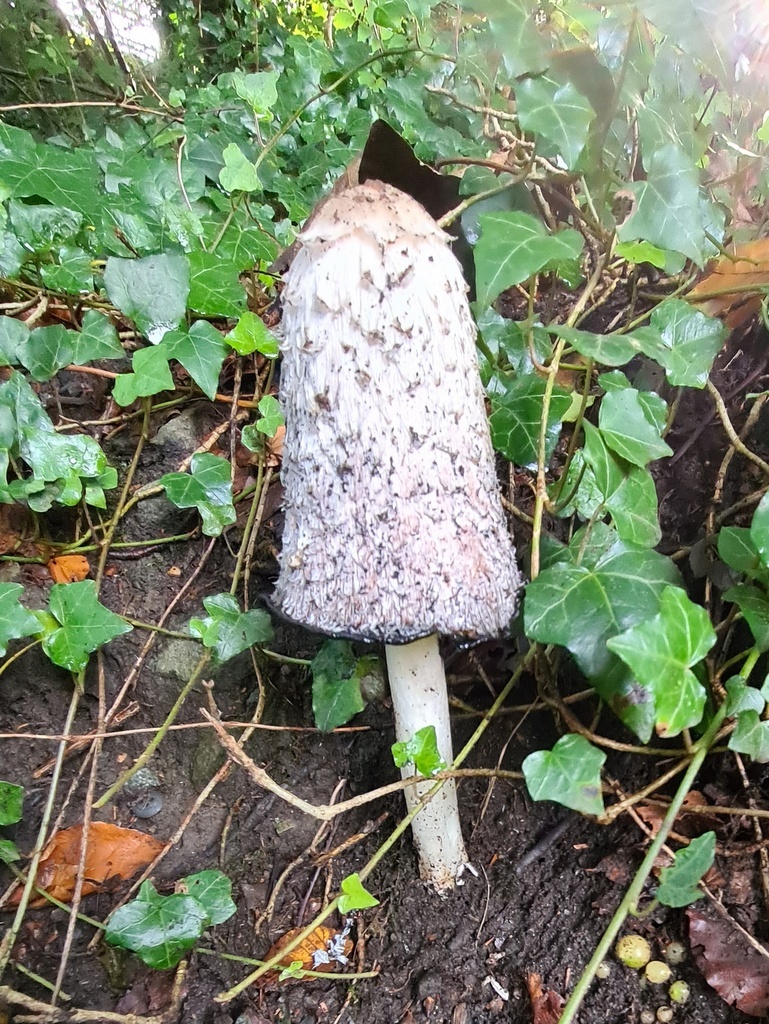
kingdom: Fungi
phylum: Basidiomycota
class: Agaricomycetes
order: Agaricales
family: Agaricaceae
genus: Coprinus
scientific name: Coprinus comatus
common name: Lawyer's wig
